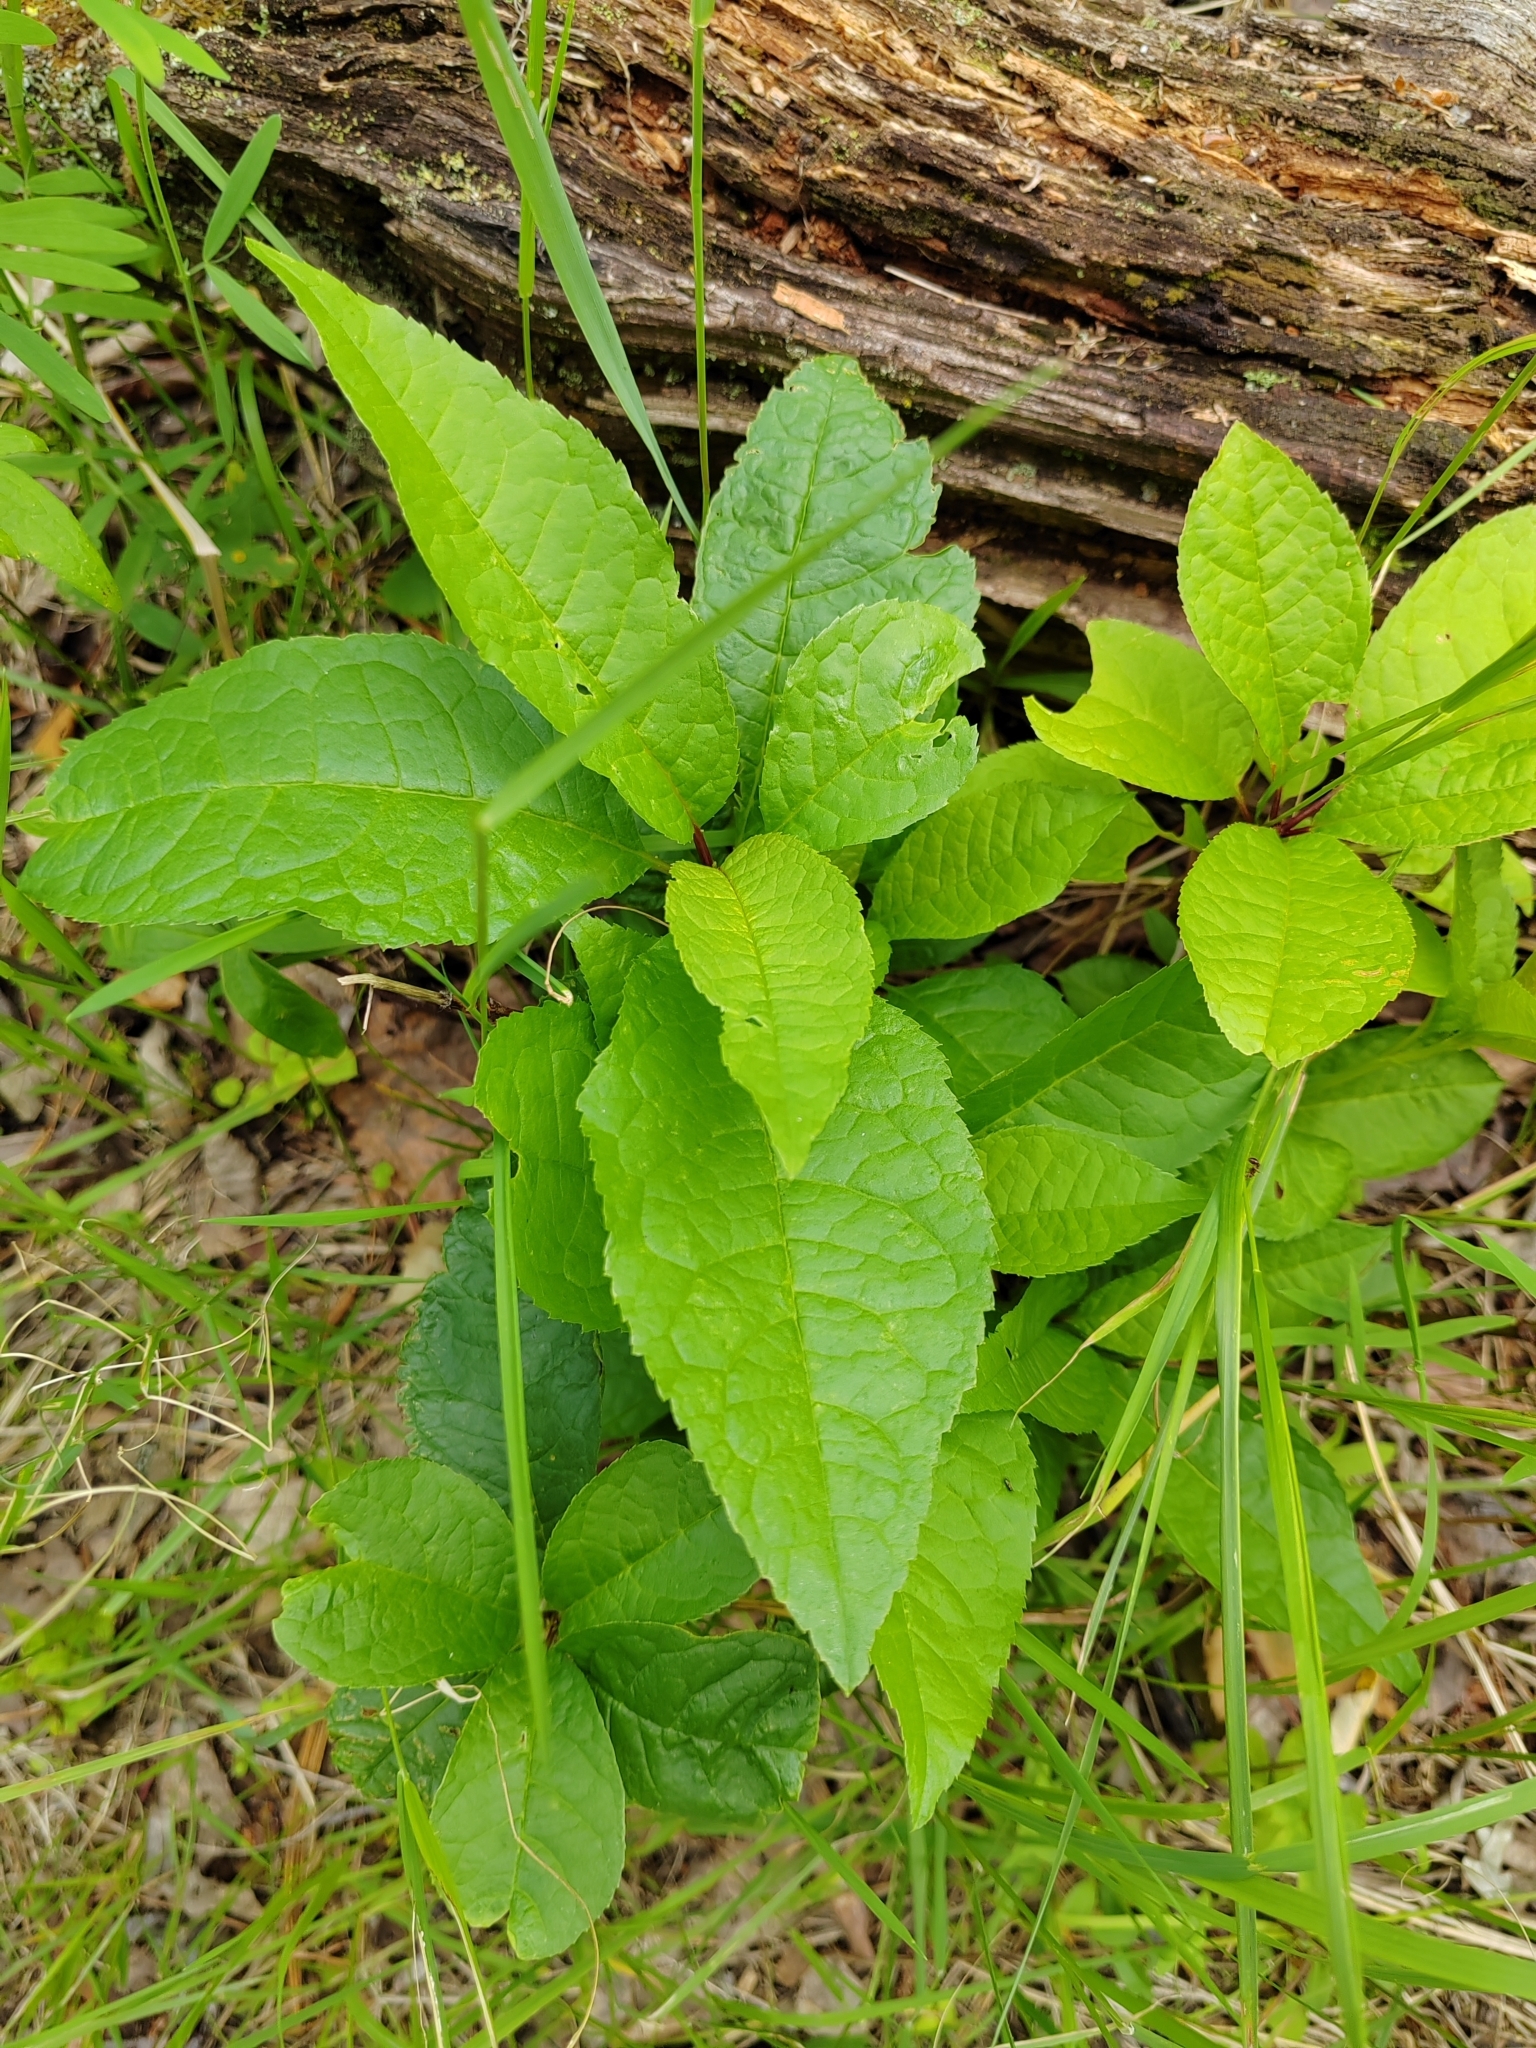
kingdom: Plantae
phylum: Tracheophyta
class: Magnoliopsida
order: Rosales
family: Rosaceae
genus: Prunus
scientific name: Prunus padus
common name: Bird cherry
